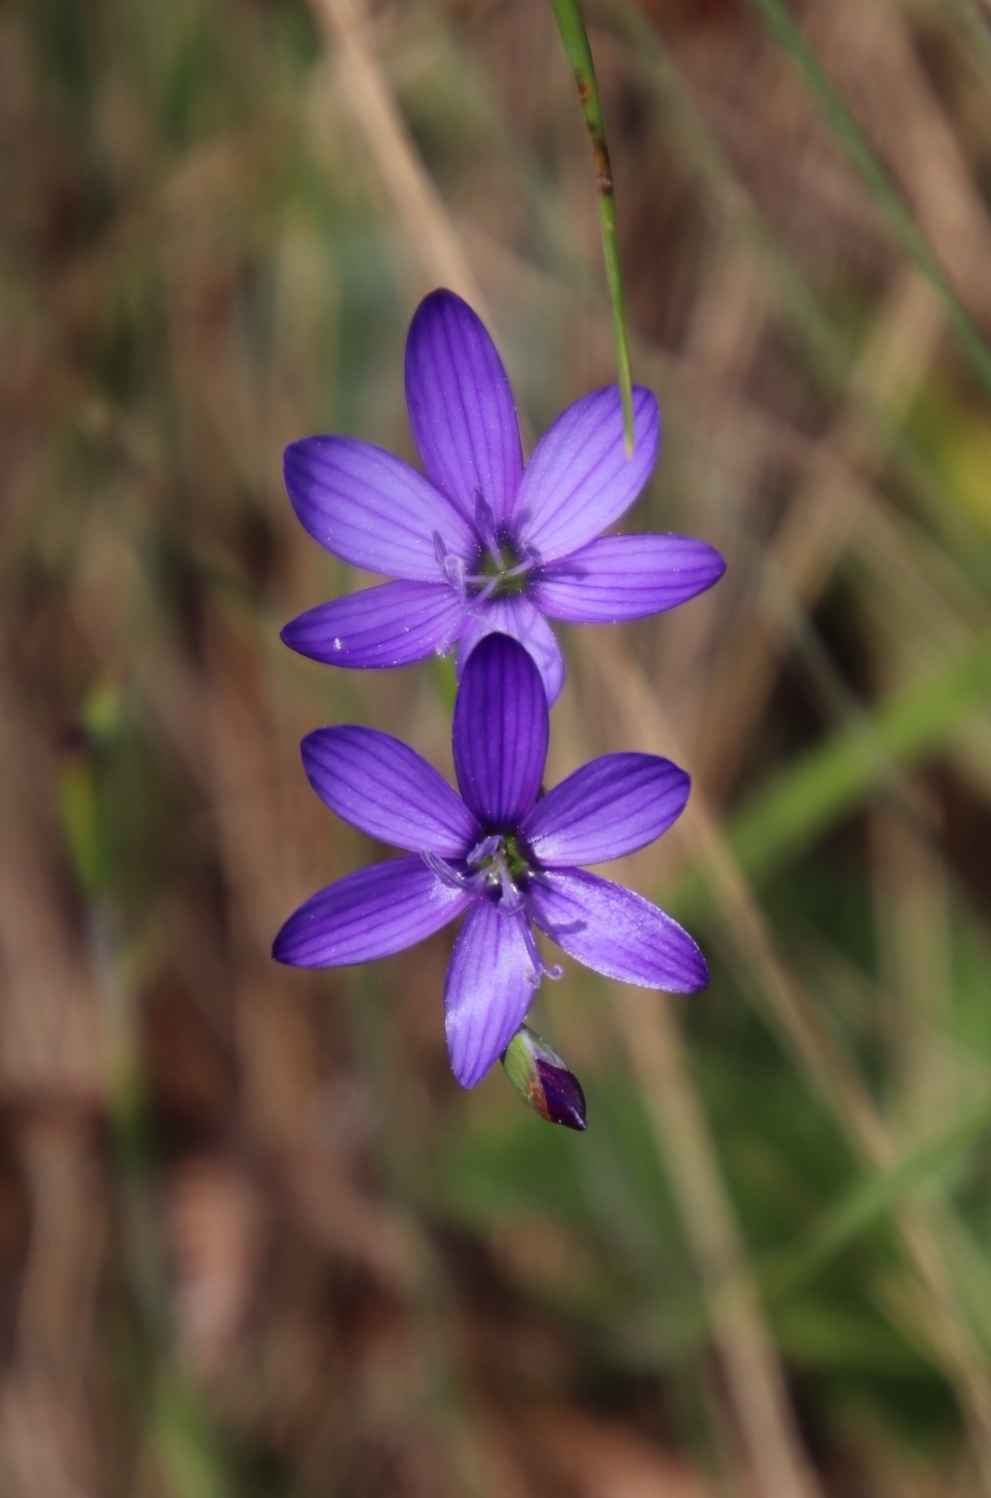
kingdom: Plantae
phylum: Tracheophyta
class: Liliopsida
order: Asparagales
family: Iridaceae
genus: Geissorhiza
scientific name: Geissorhiza aspera
